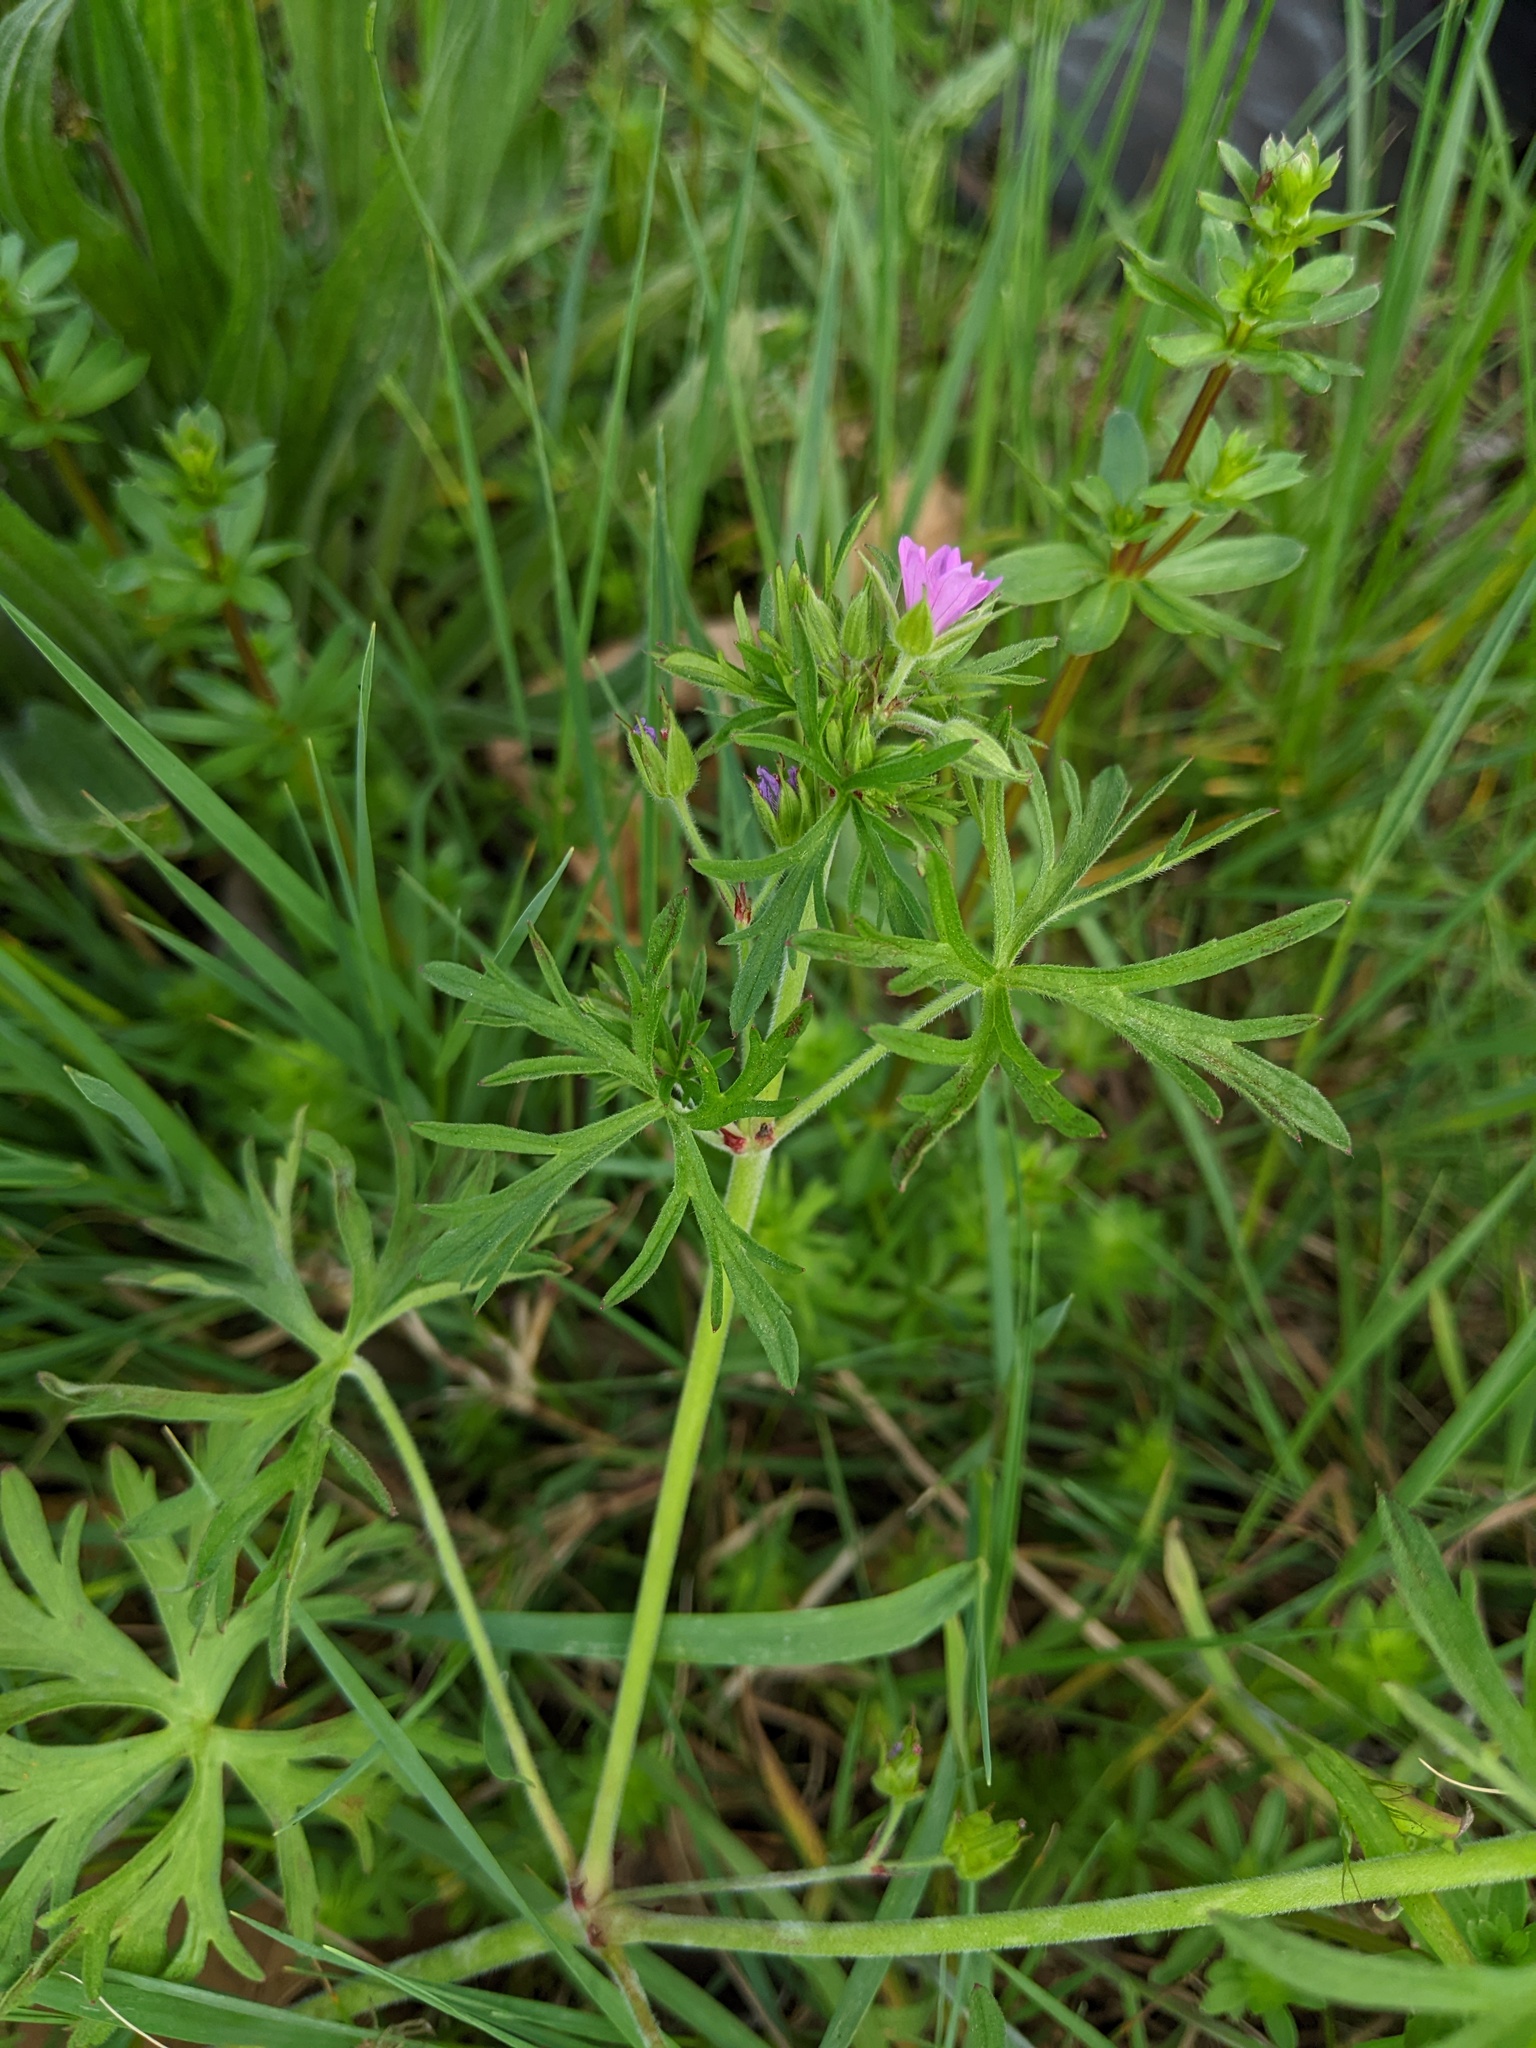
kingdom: Plantae
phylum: Tracheophyta
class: Magnoliopsida
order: Geraniales
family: Geraniaceae
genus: Geranium
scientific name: Geranium dissectum
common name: Cut-leaved crane's-bill
